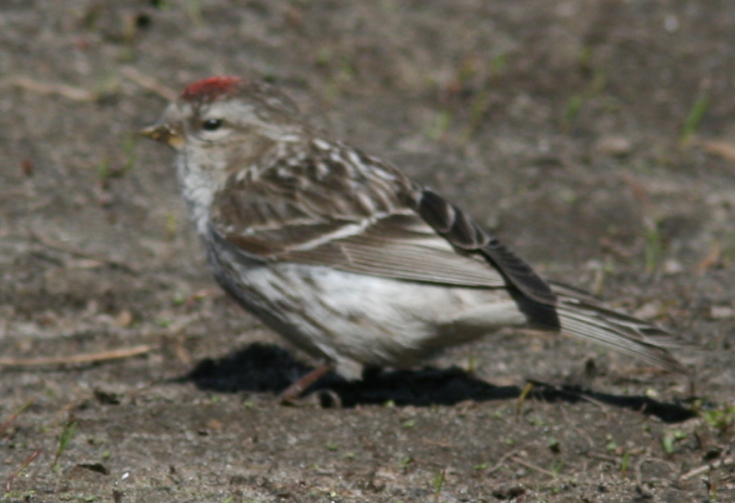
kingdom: Animalia
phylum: Chordata
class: Aves
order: Passeriformes
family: Fringillidae
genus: Acanthis
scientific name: Acanthis flammea
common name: Common redpoll
